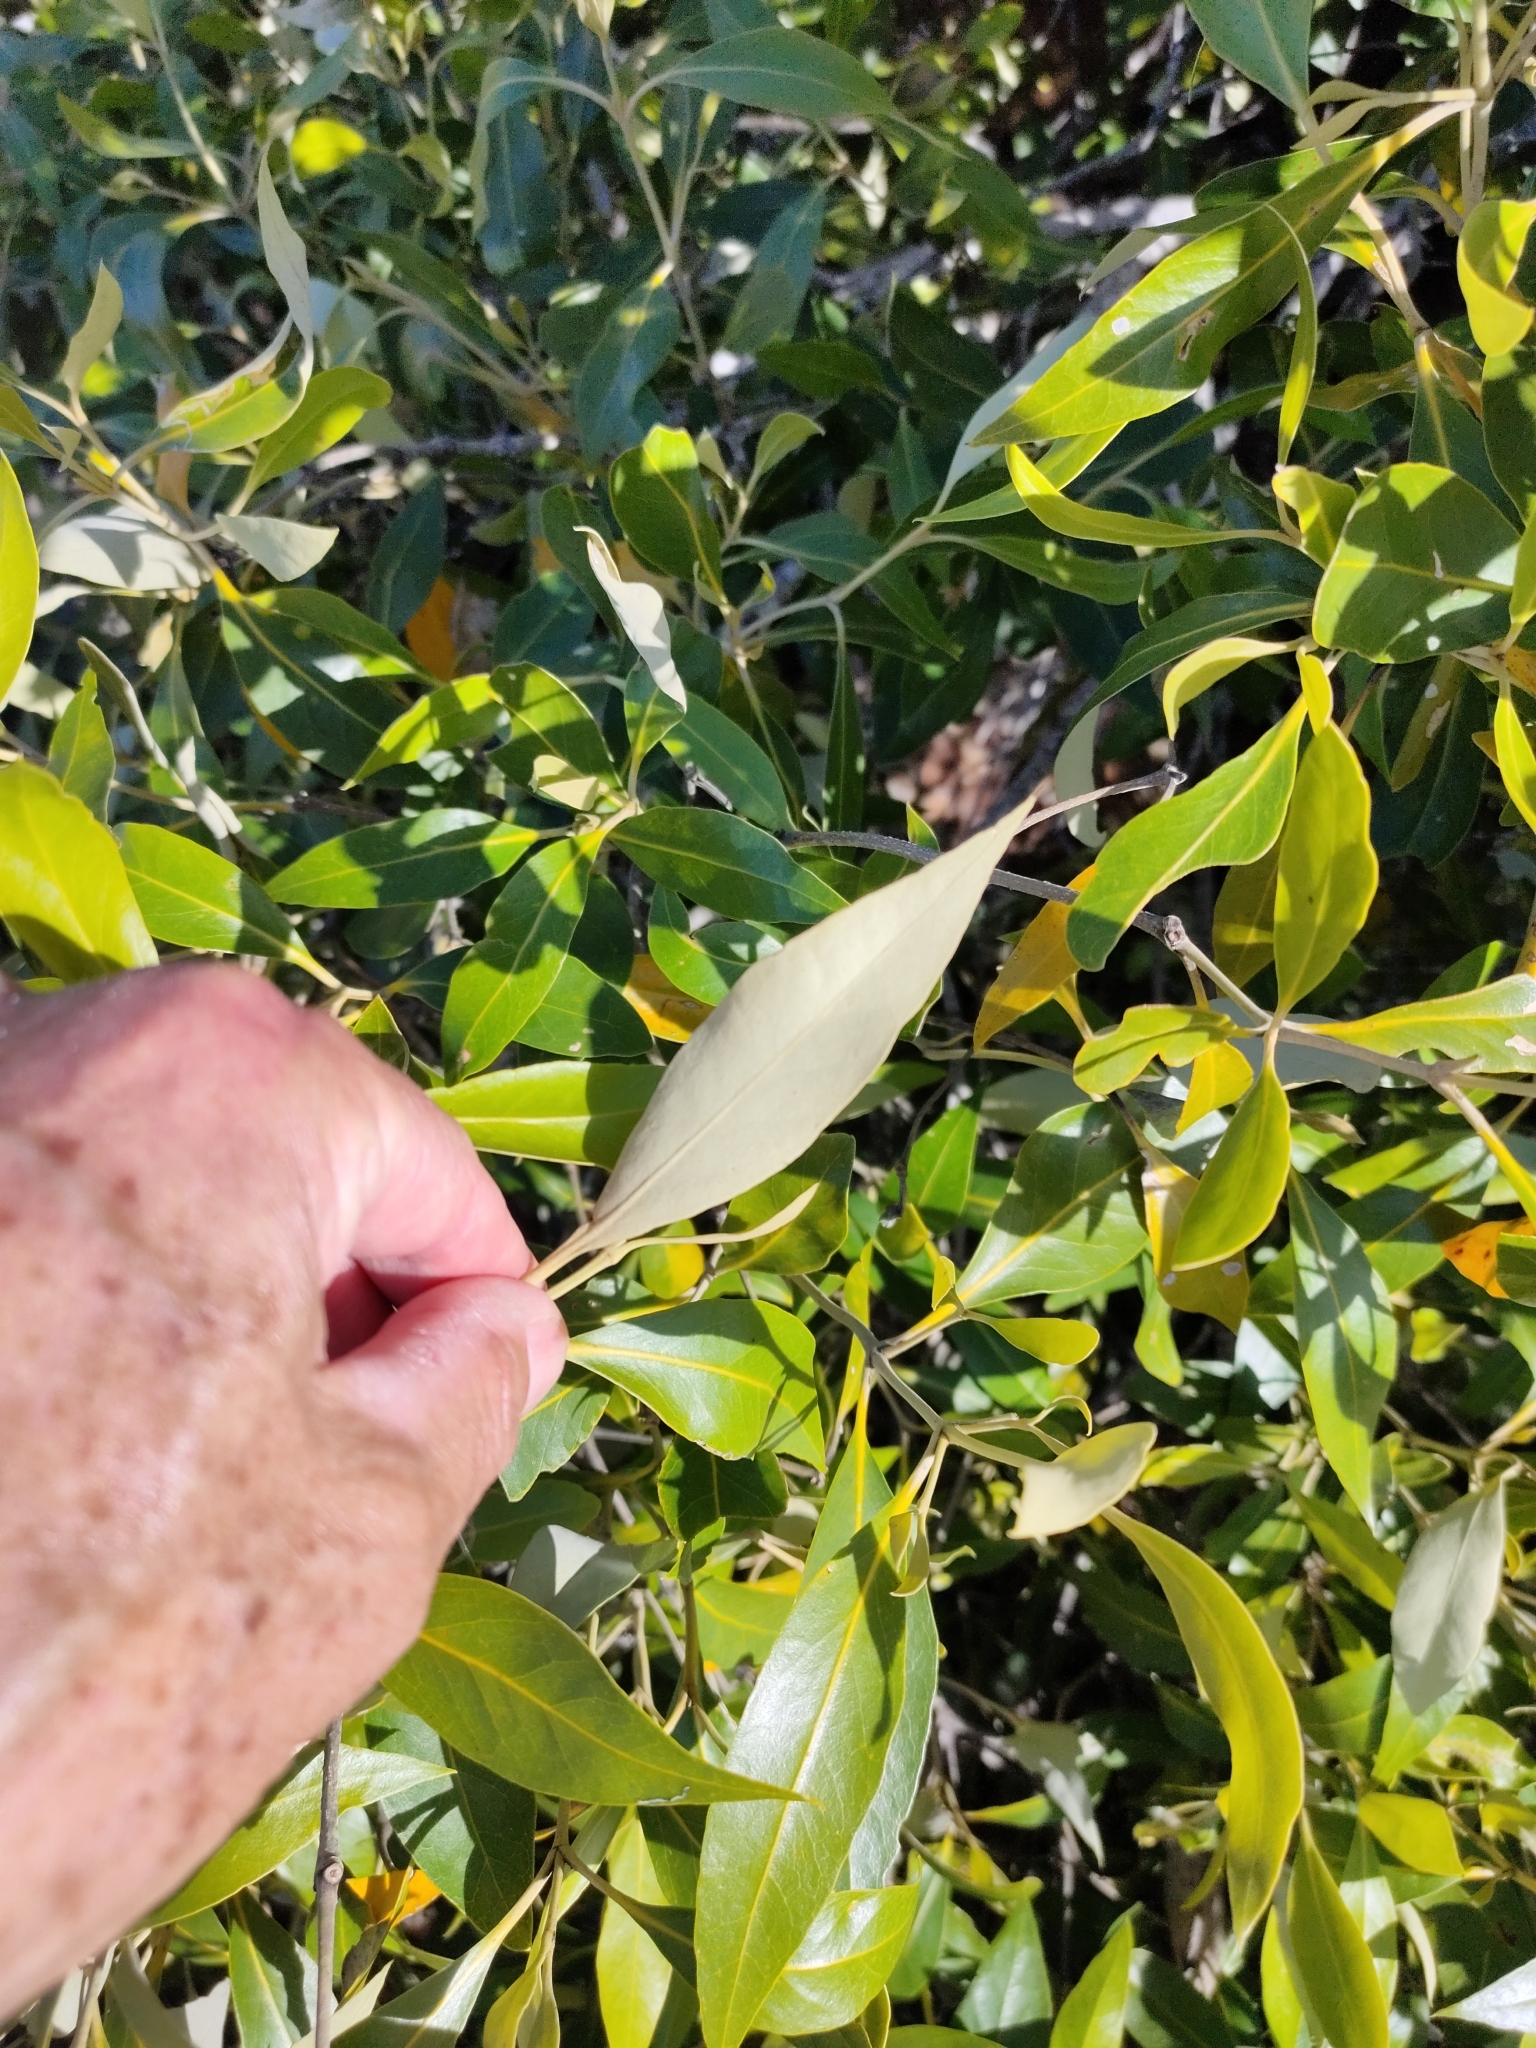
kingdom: Plantae
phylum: Tracheophyta
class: Magnoliopsida
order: Lamiales
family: Acanthaceae
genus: Avicennia
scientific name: Avicennia marina
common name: Gray mangrove
